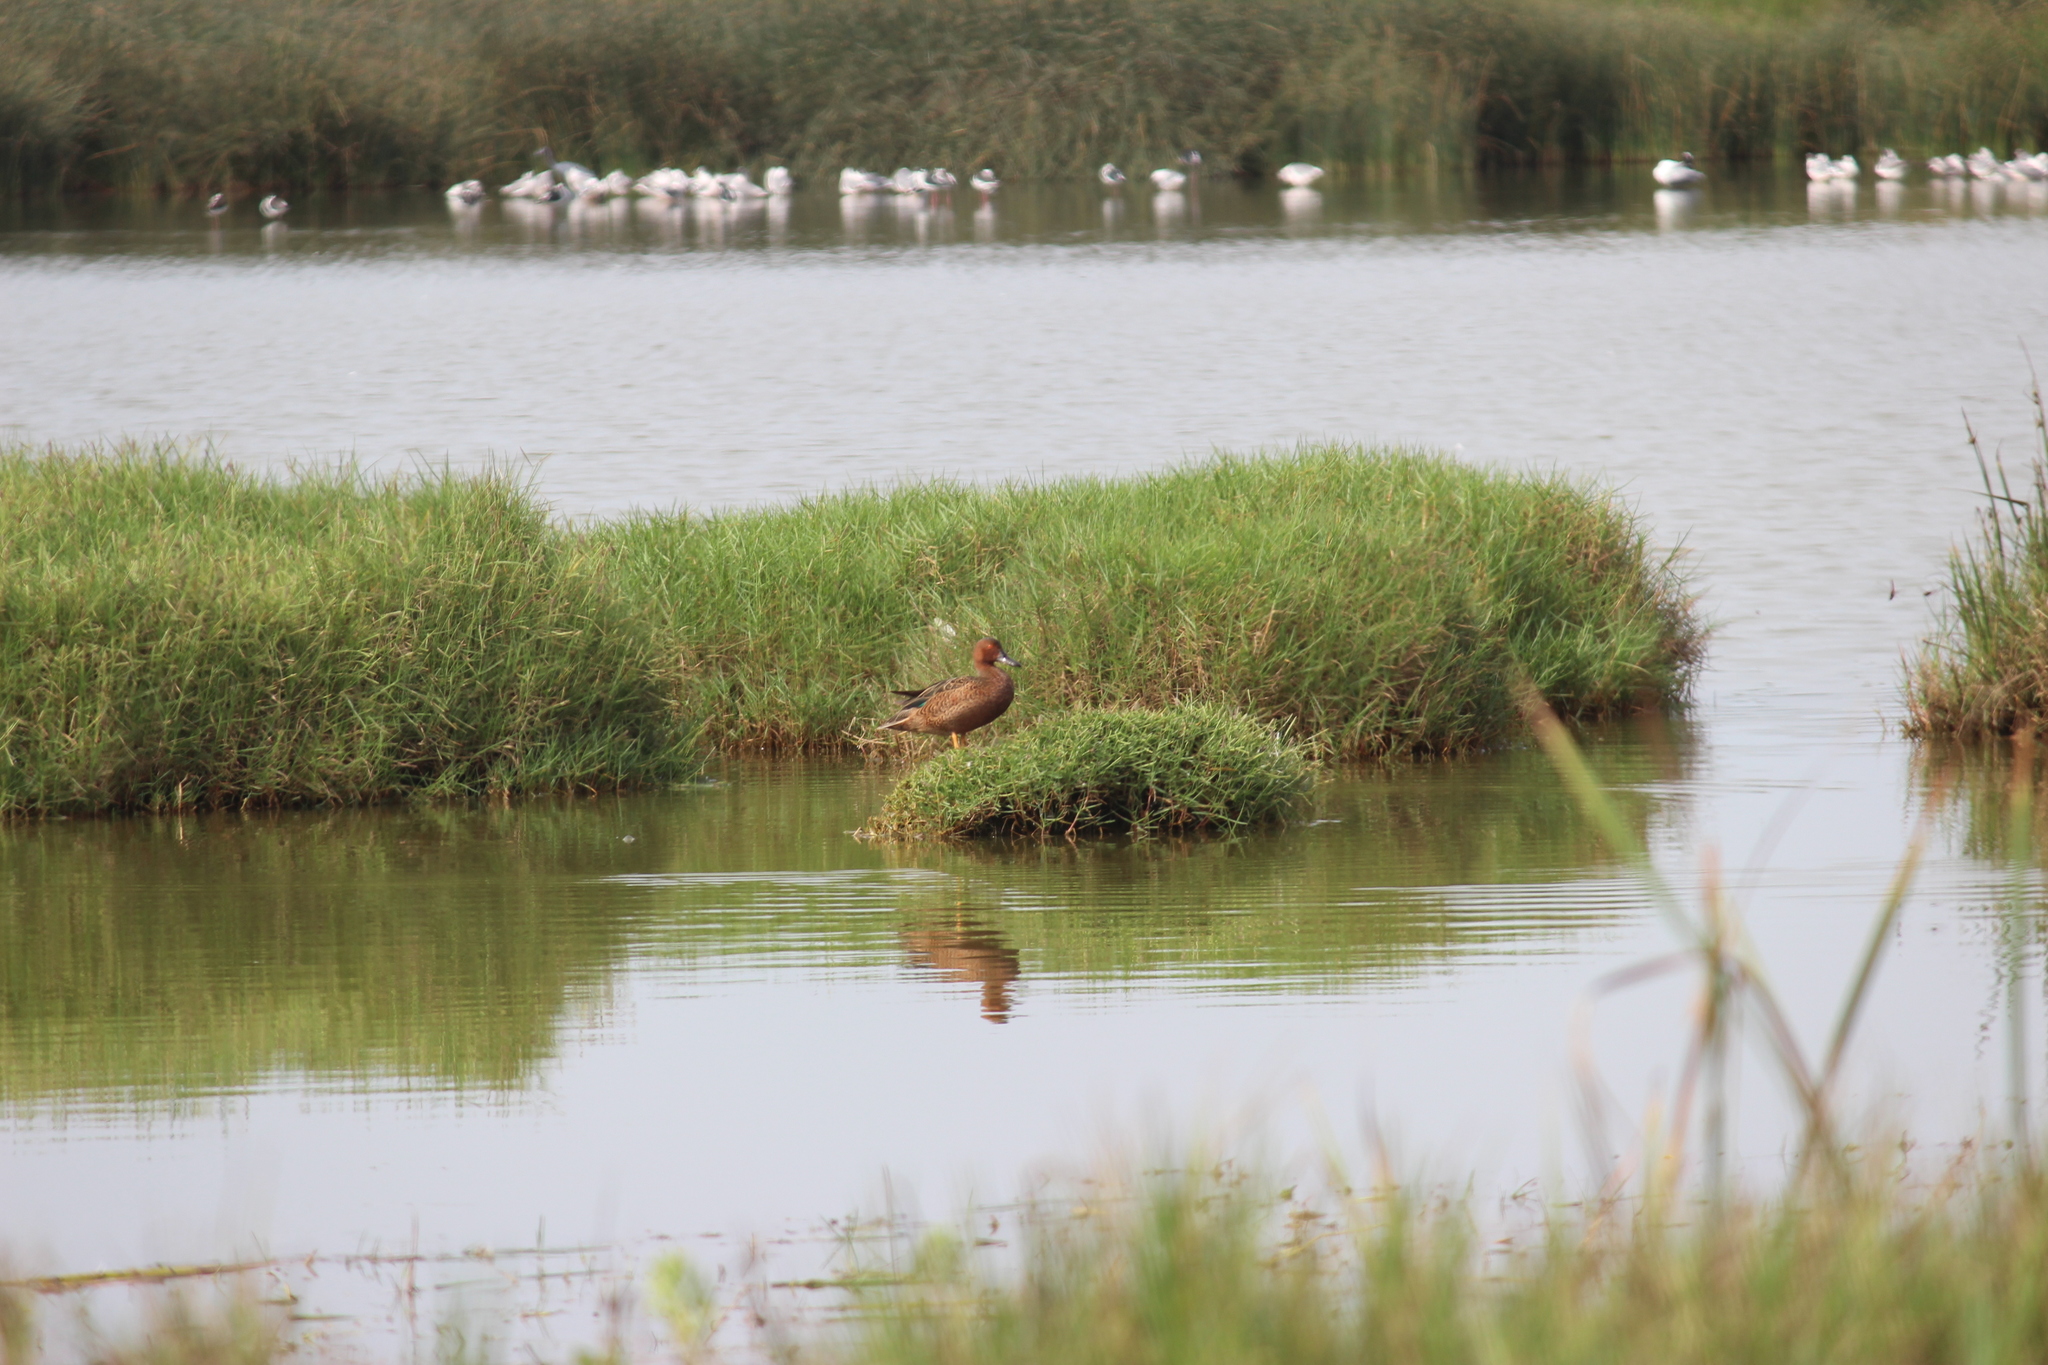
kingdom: Animalia
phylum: Chordata
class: Aves
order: Anseriformes
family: Anatidae
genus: Spatula
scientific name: Spatula cyanoptera
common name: Cinnamon teal
